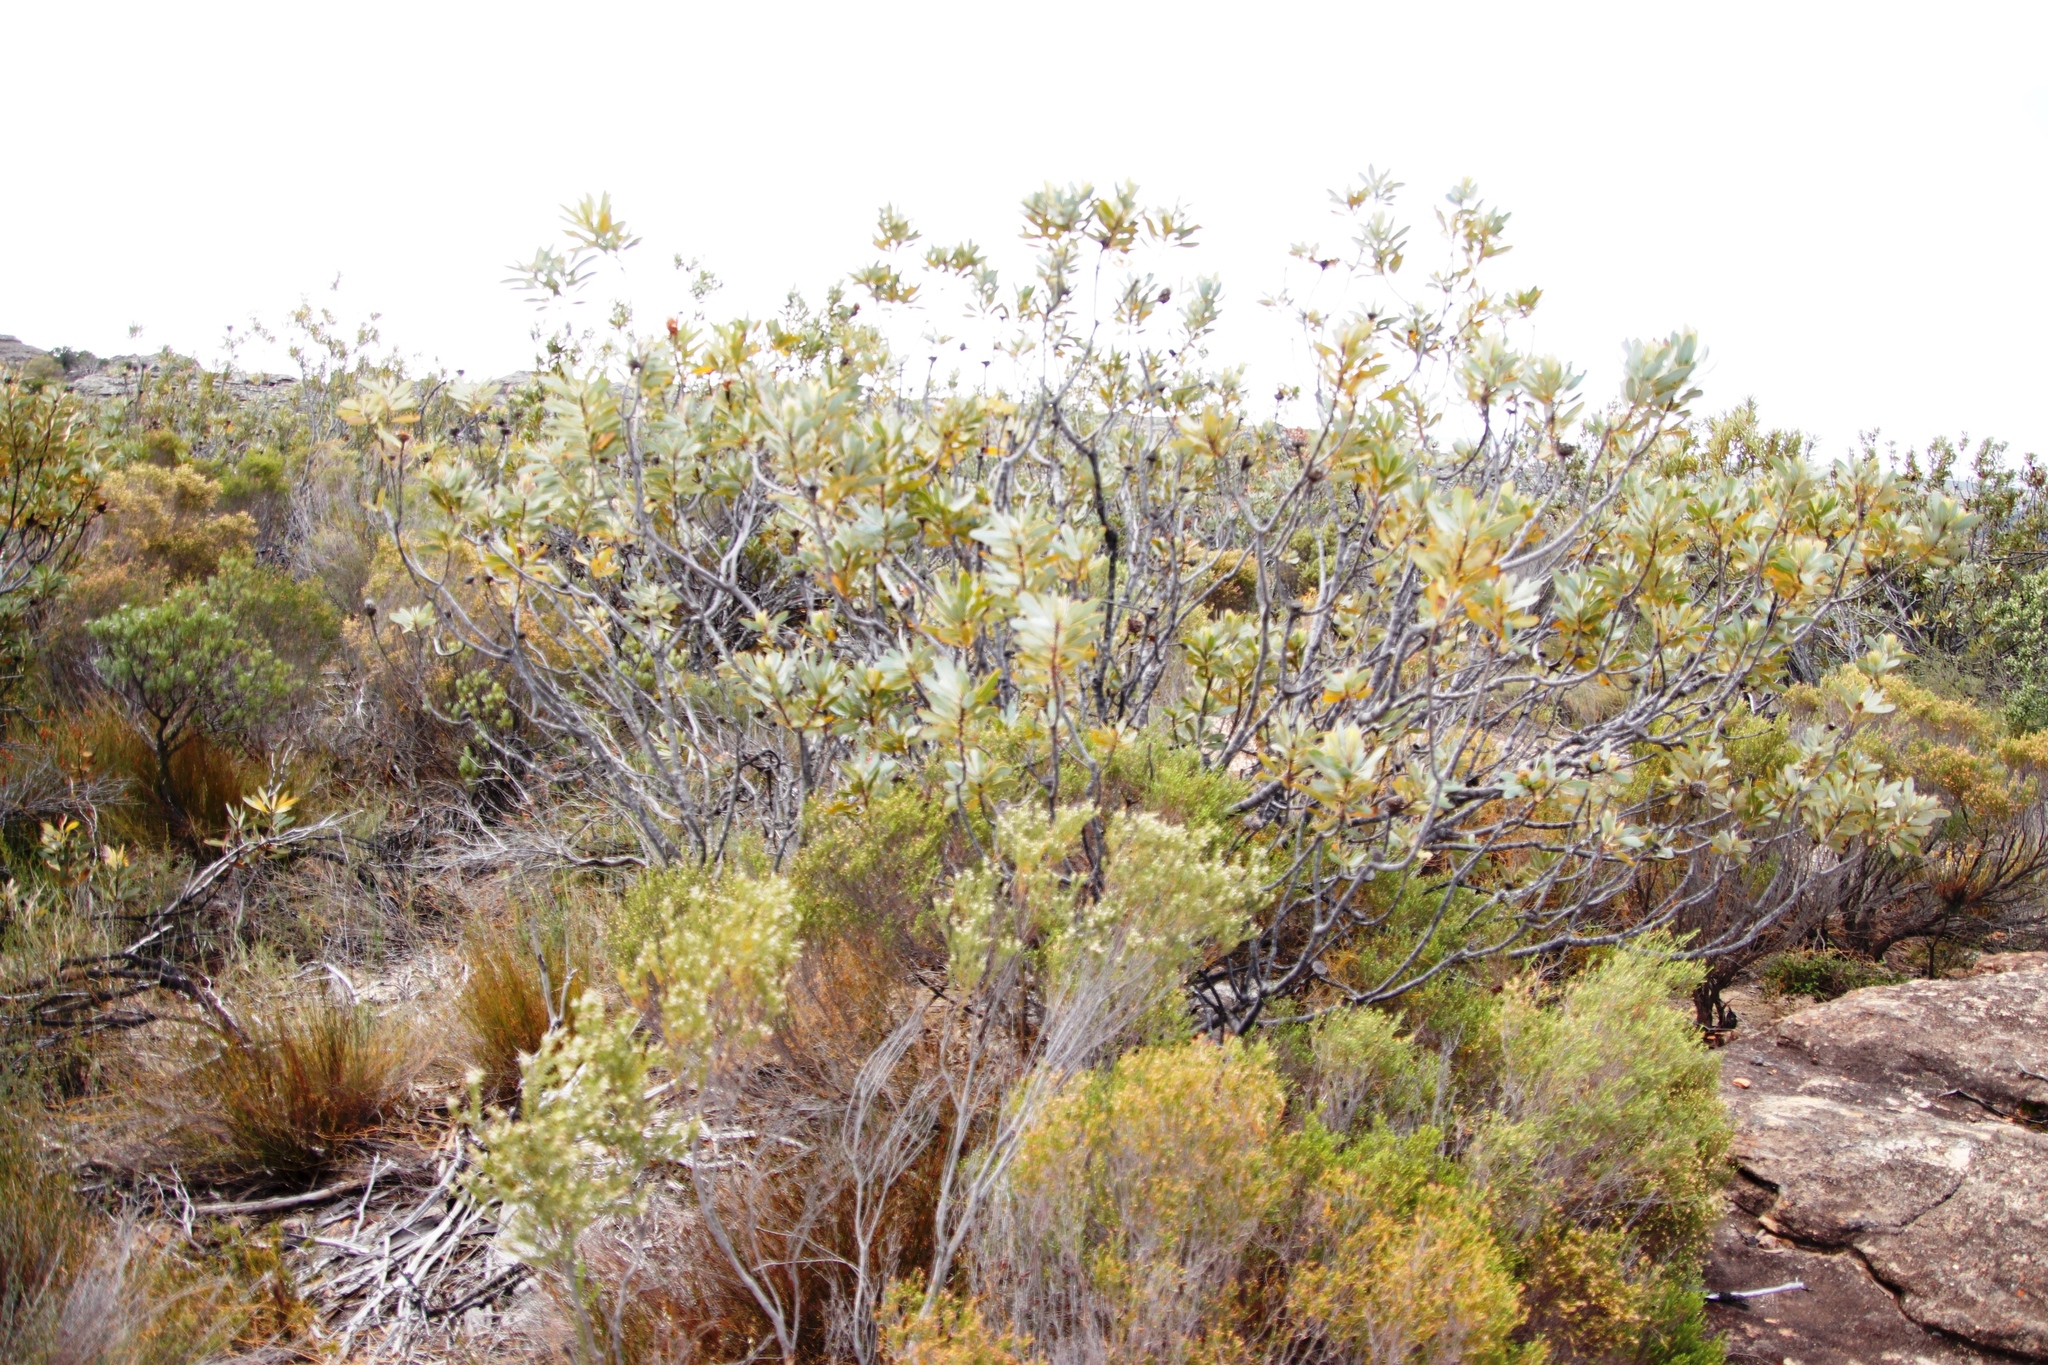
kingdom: Plantae
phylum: Tracheophyta
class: Magnoliopsida
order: Proteales
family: Proteaceae
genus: Protea
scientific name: Protea laurifolia
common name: Grey-leaf sugarbsh
